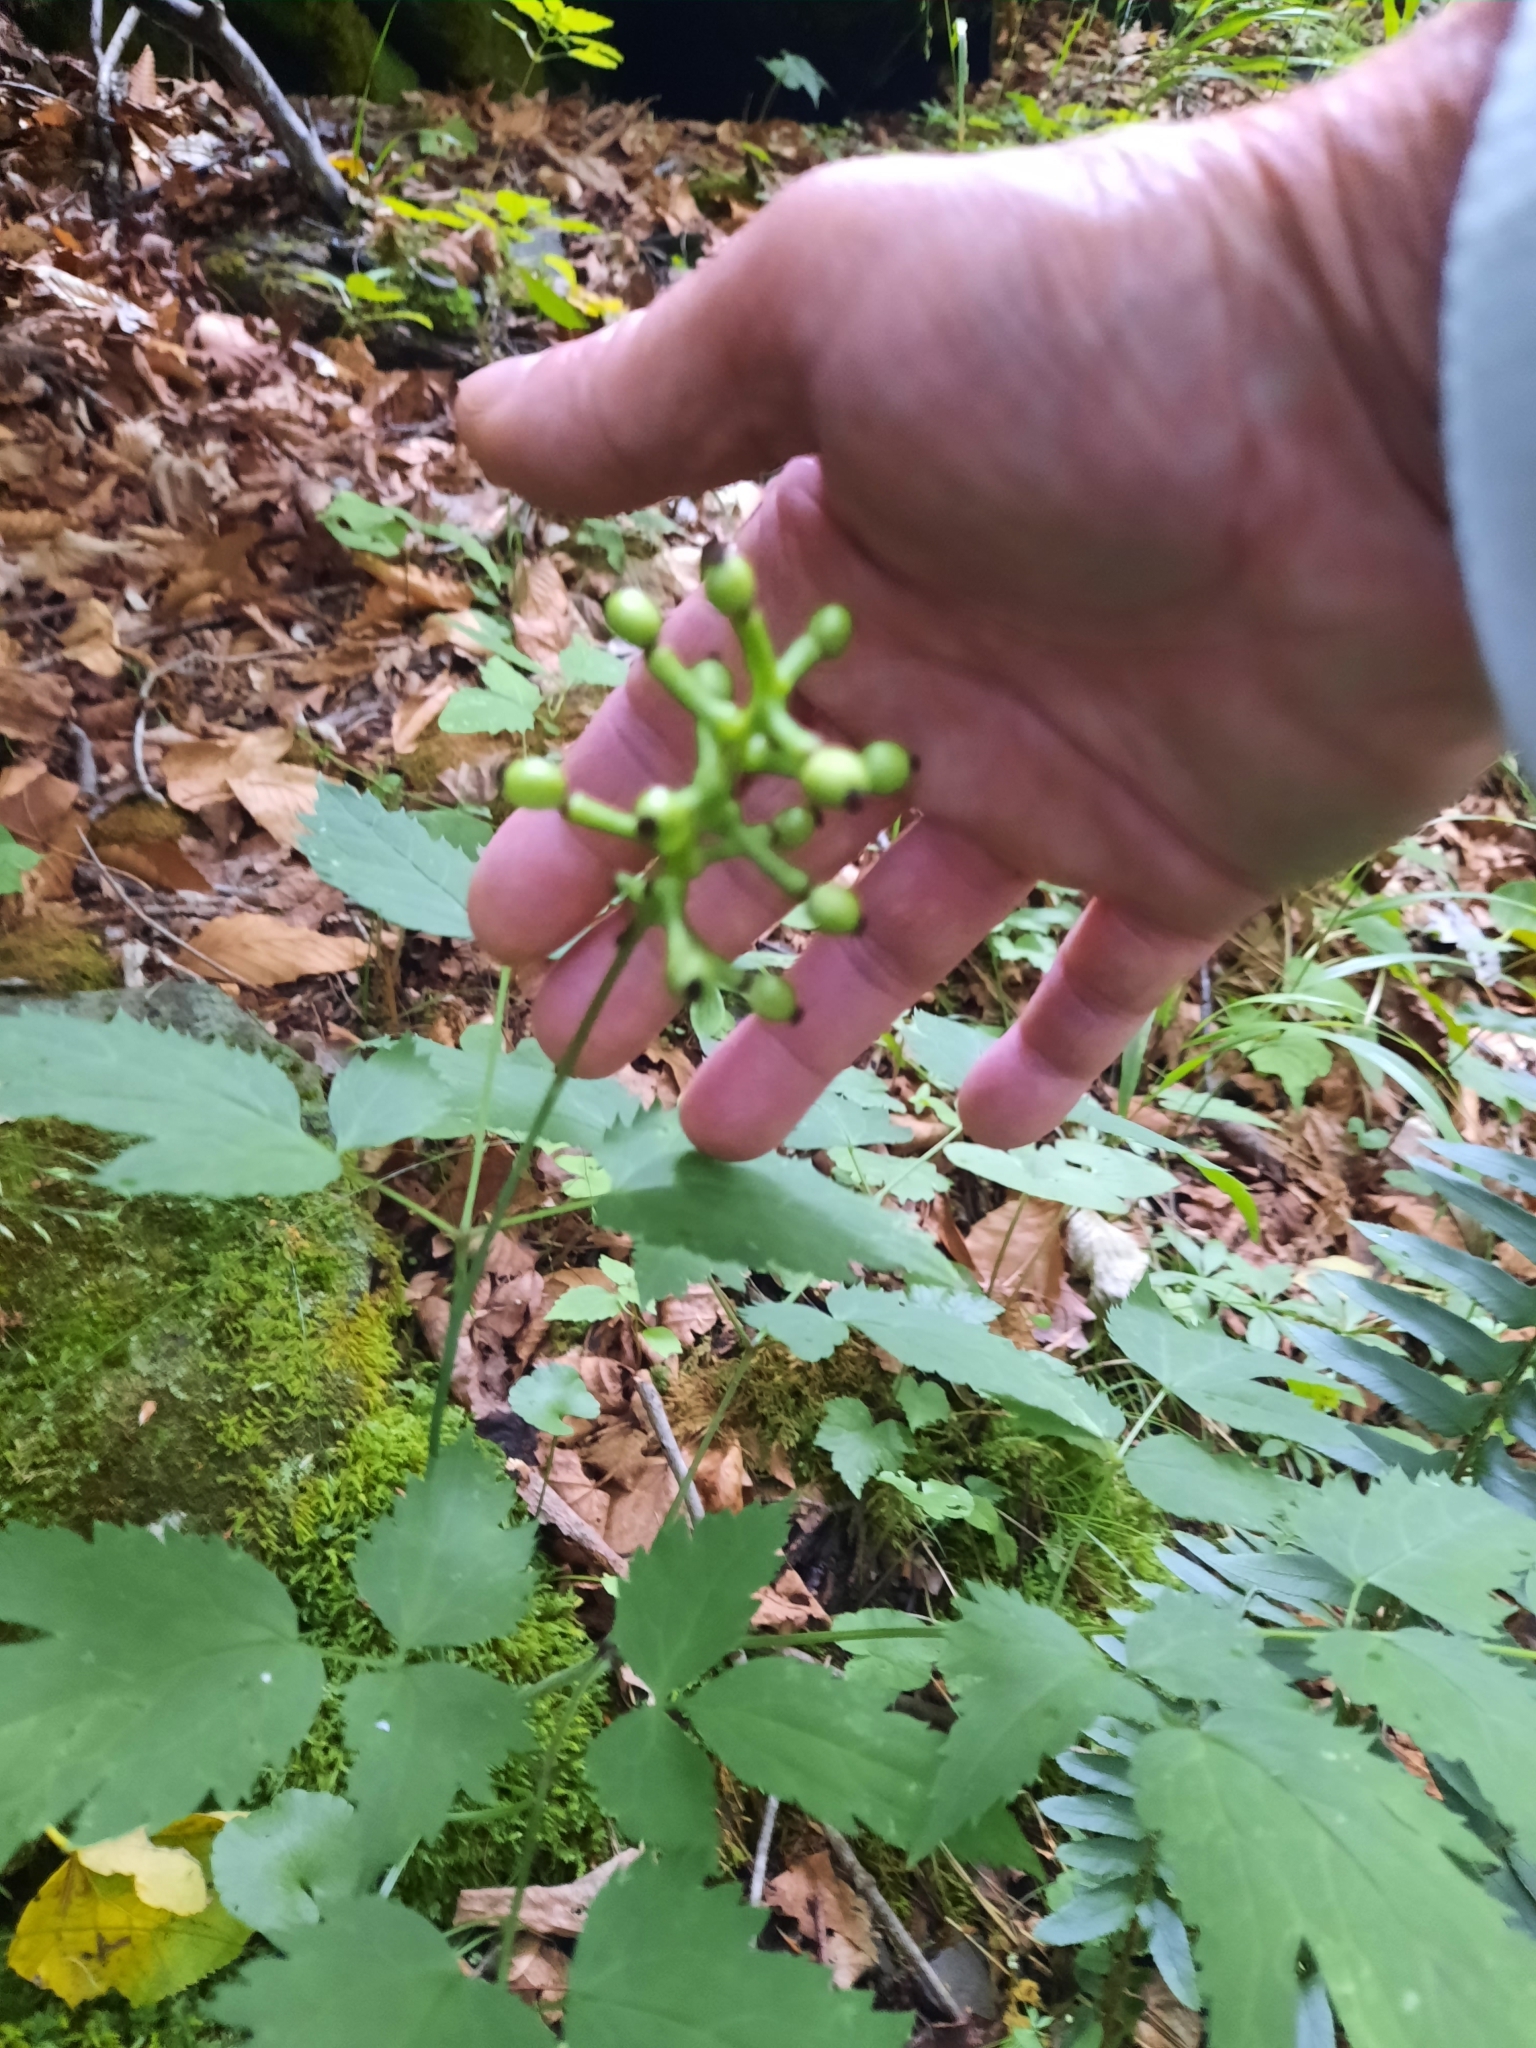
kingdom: Plantae
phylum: Tracheophyta
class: Magnoliopsida
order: Ranunculales
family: Ranunculaceae
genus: Actaea
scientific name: Actaea pachypoda
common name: Doll's-eyes
